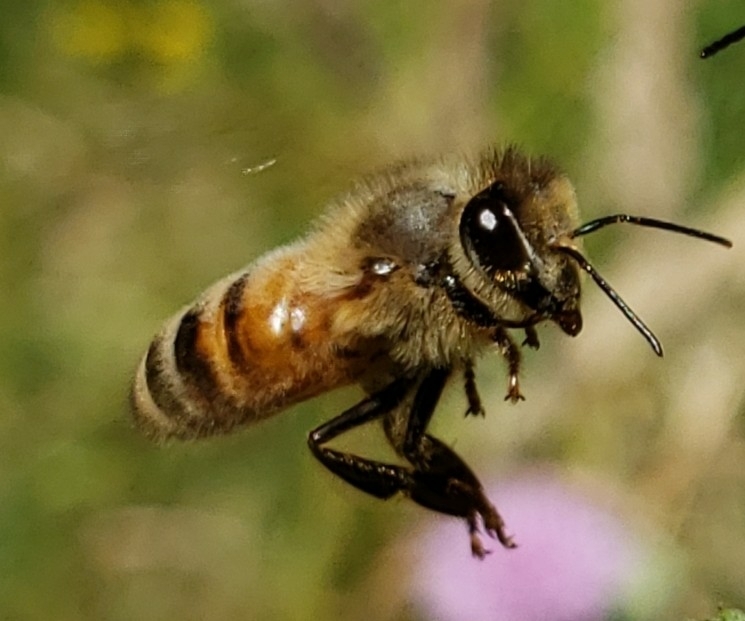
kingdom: Animalia
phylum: Arthropoda
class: Insecta
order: Hymenoptera
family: Apidae
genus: Apis
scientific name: Apis mellifera
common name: Honey bee
